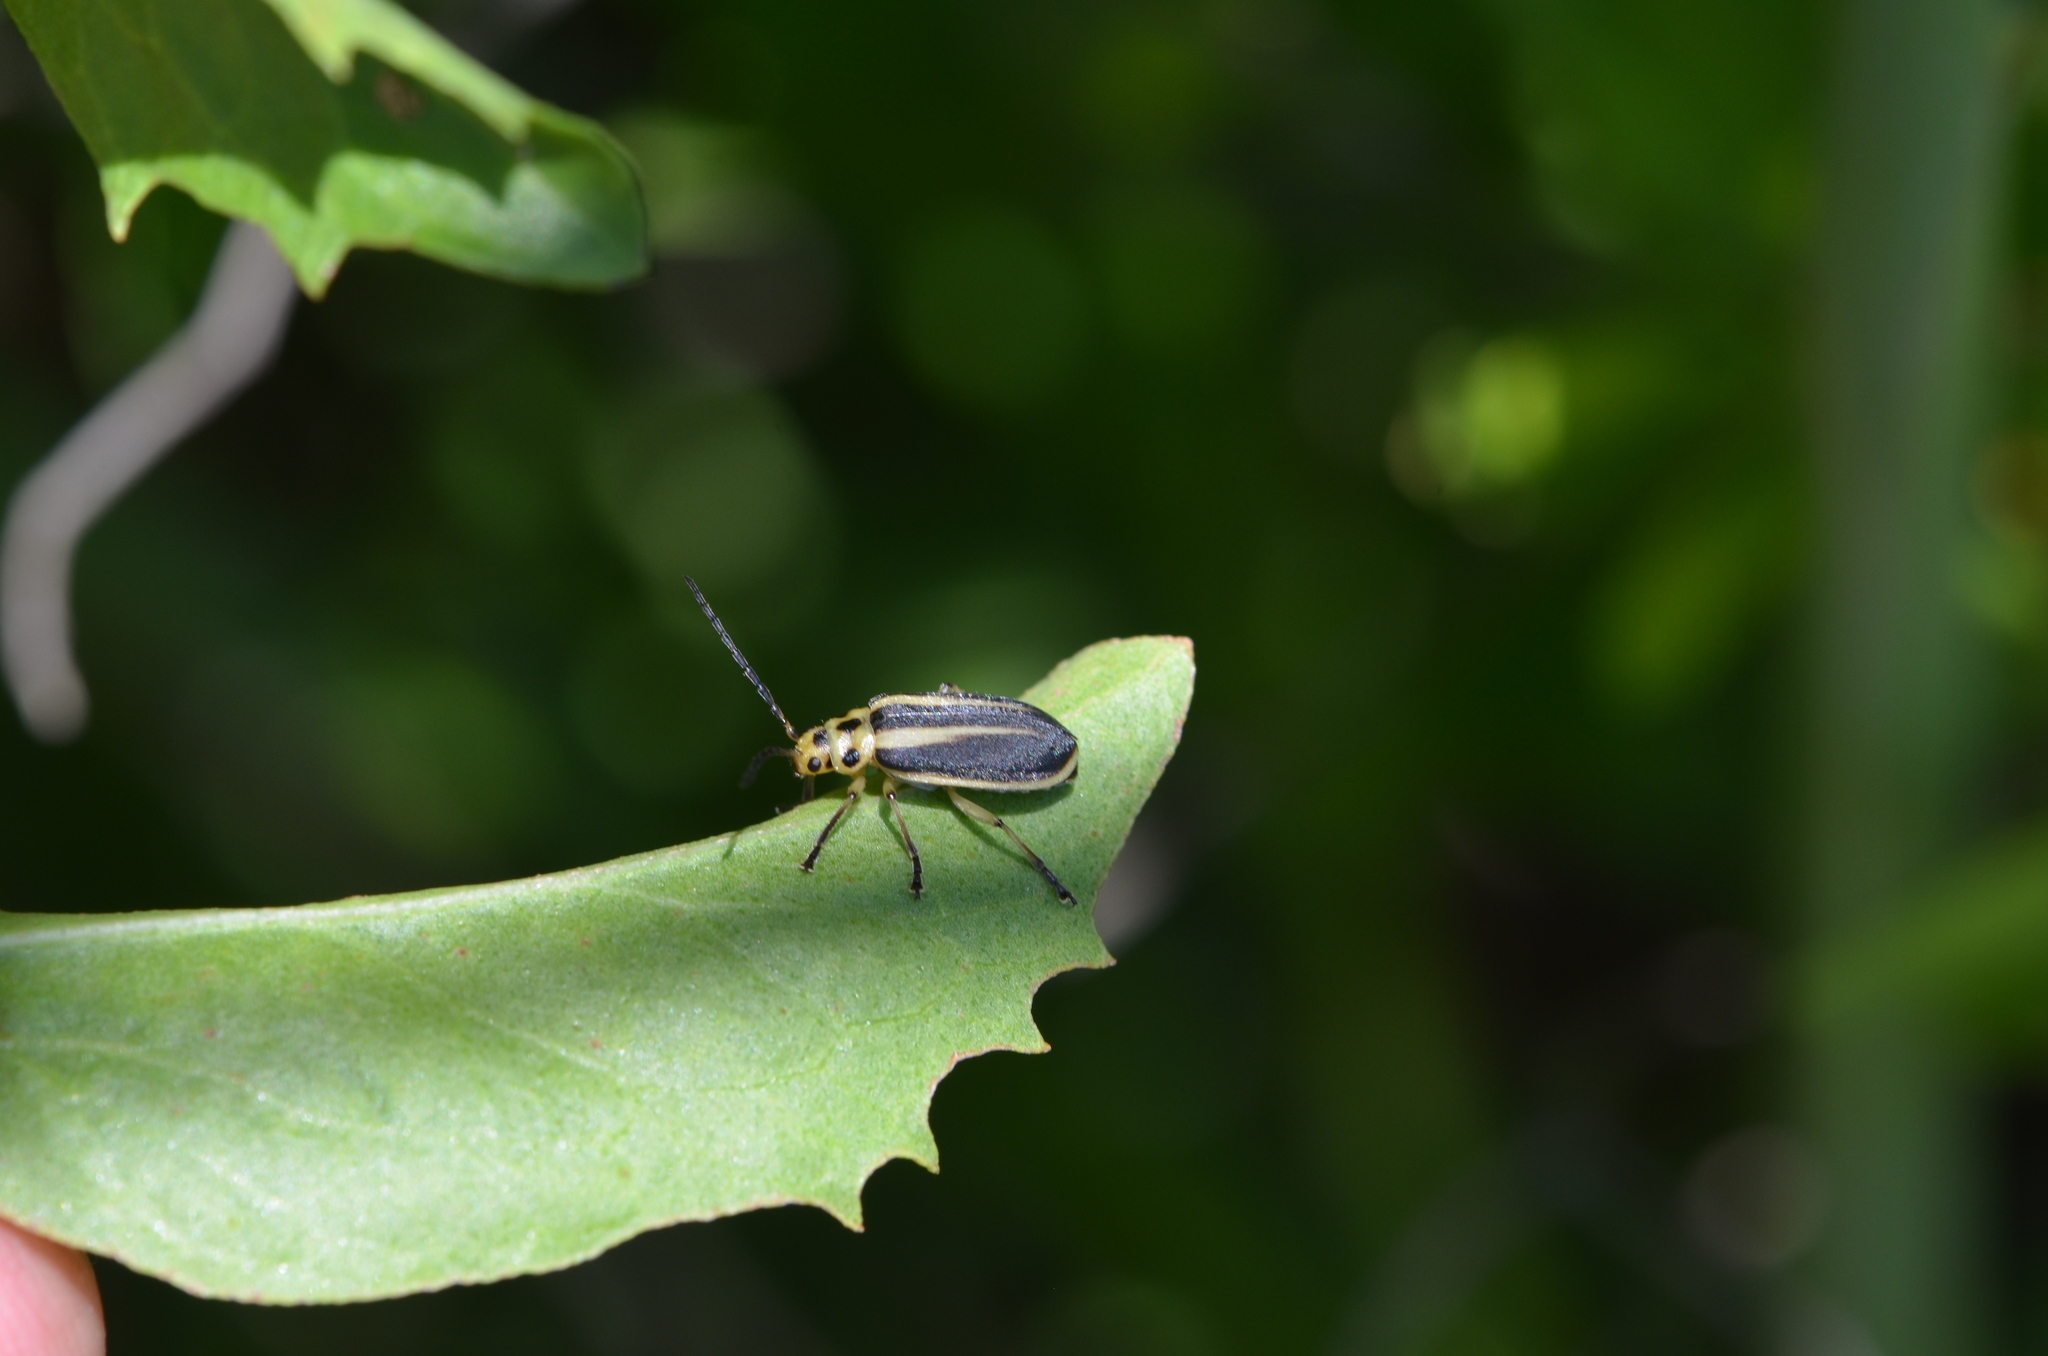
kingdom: Animalia
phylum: Arthropoda
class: Insecta
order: Coleoptera
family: Chrysomelidae
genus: Trirhabda
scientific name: Trirhabda bacharidis
